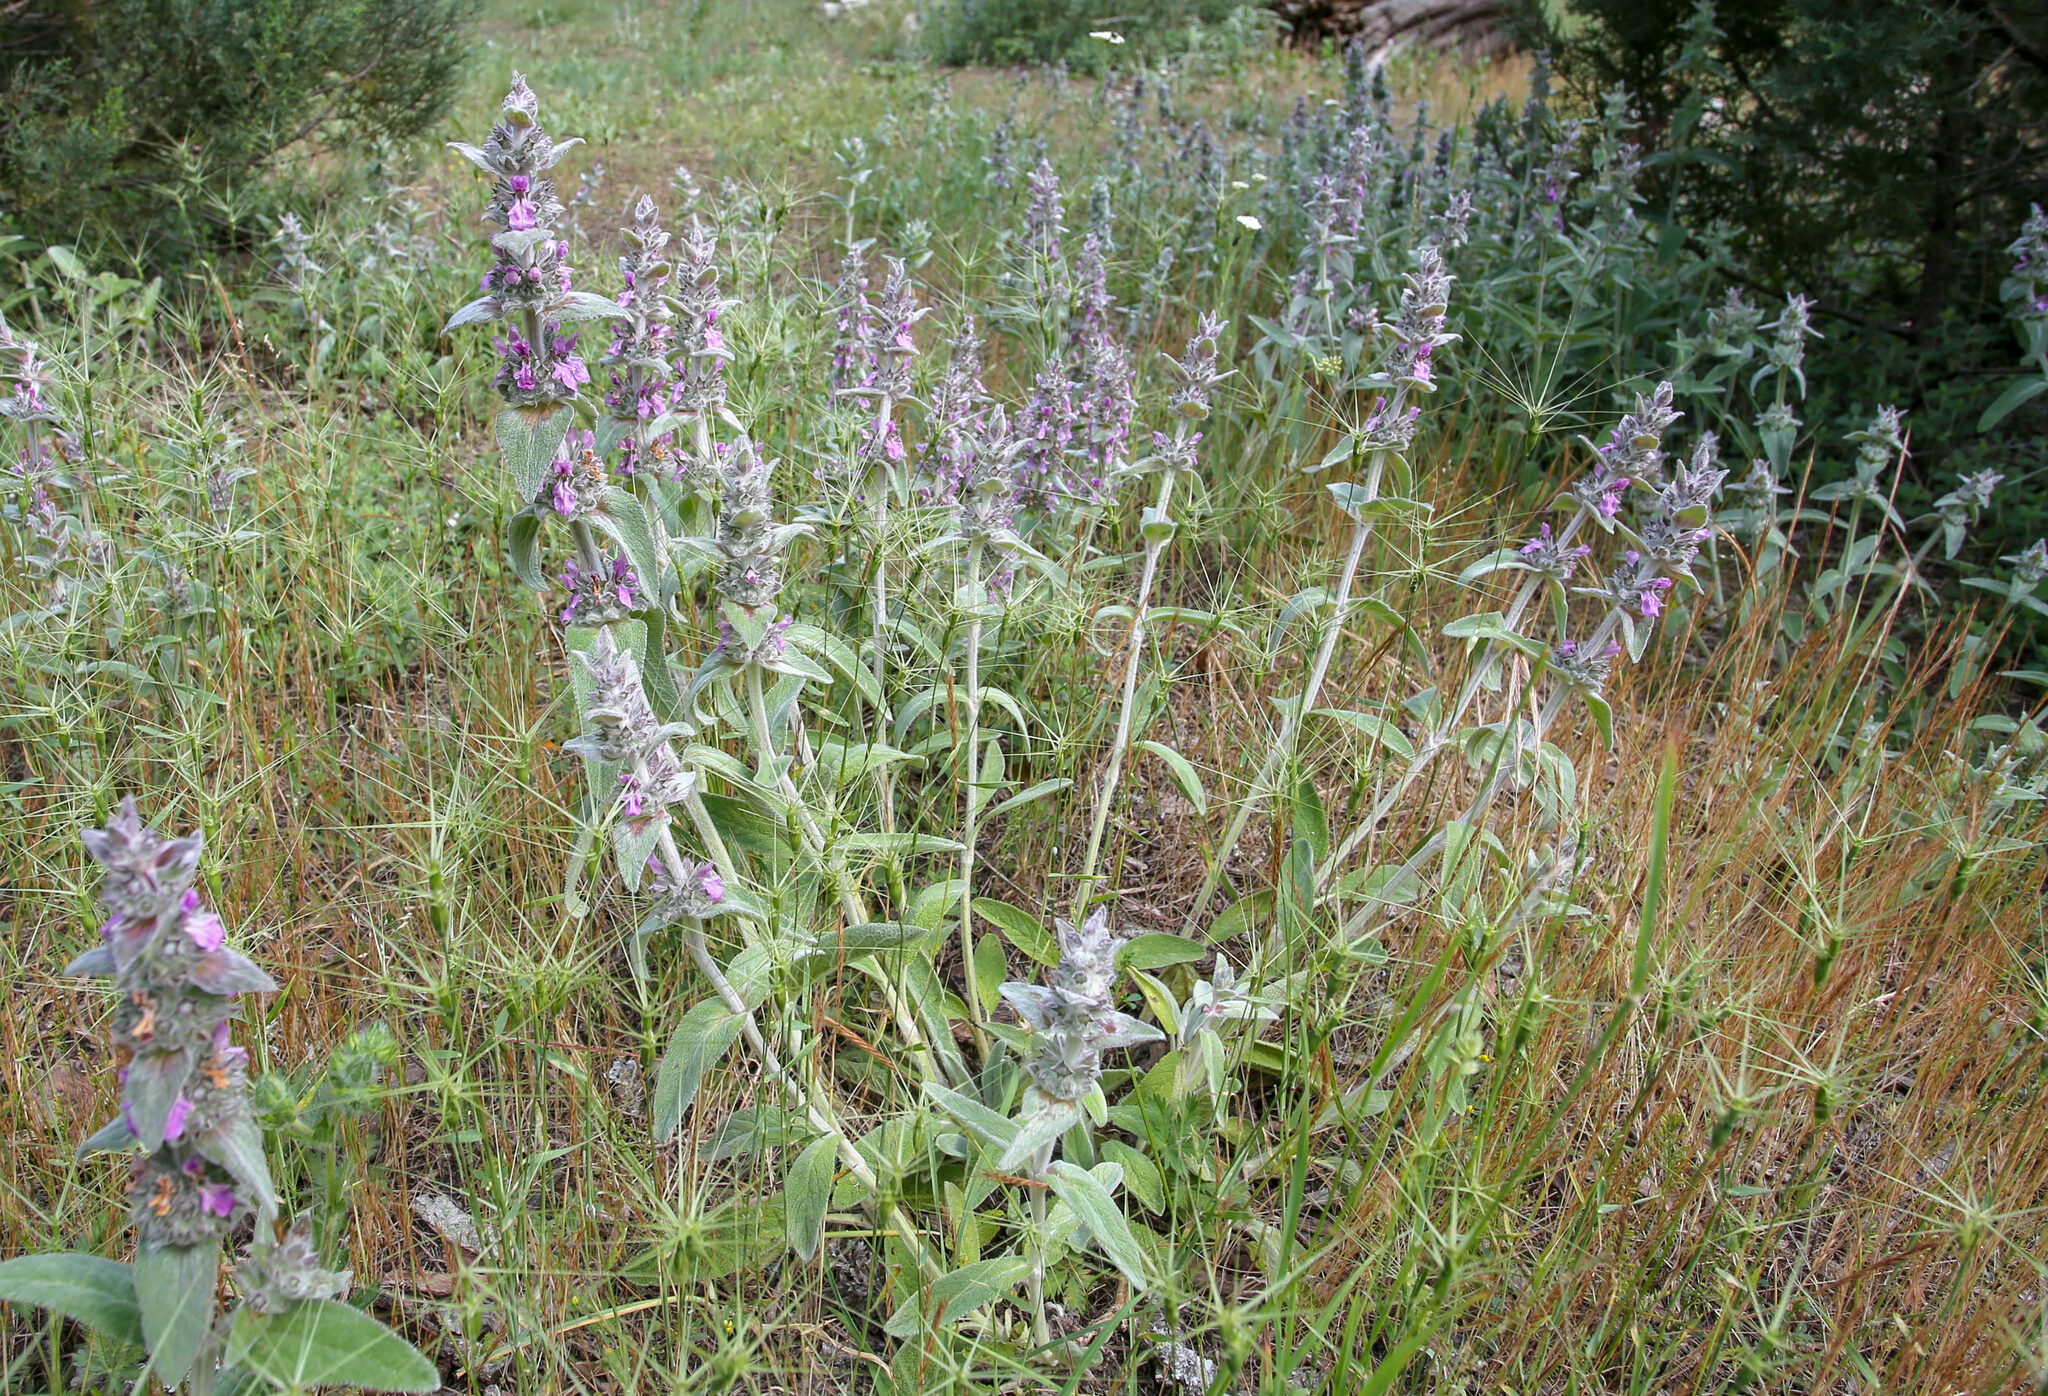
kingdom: Plantae
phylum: Tracheophyta
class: Magnoliopsida
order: Lamiales
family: Lamiaceae
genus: Stachys
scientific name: Stachys cretica
